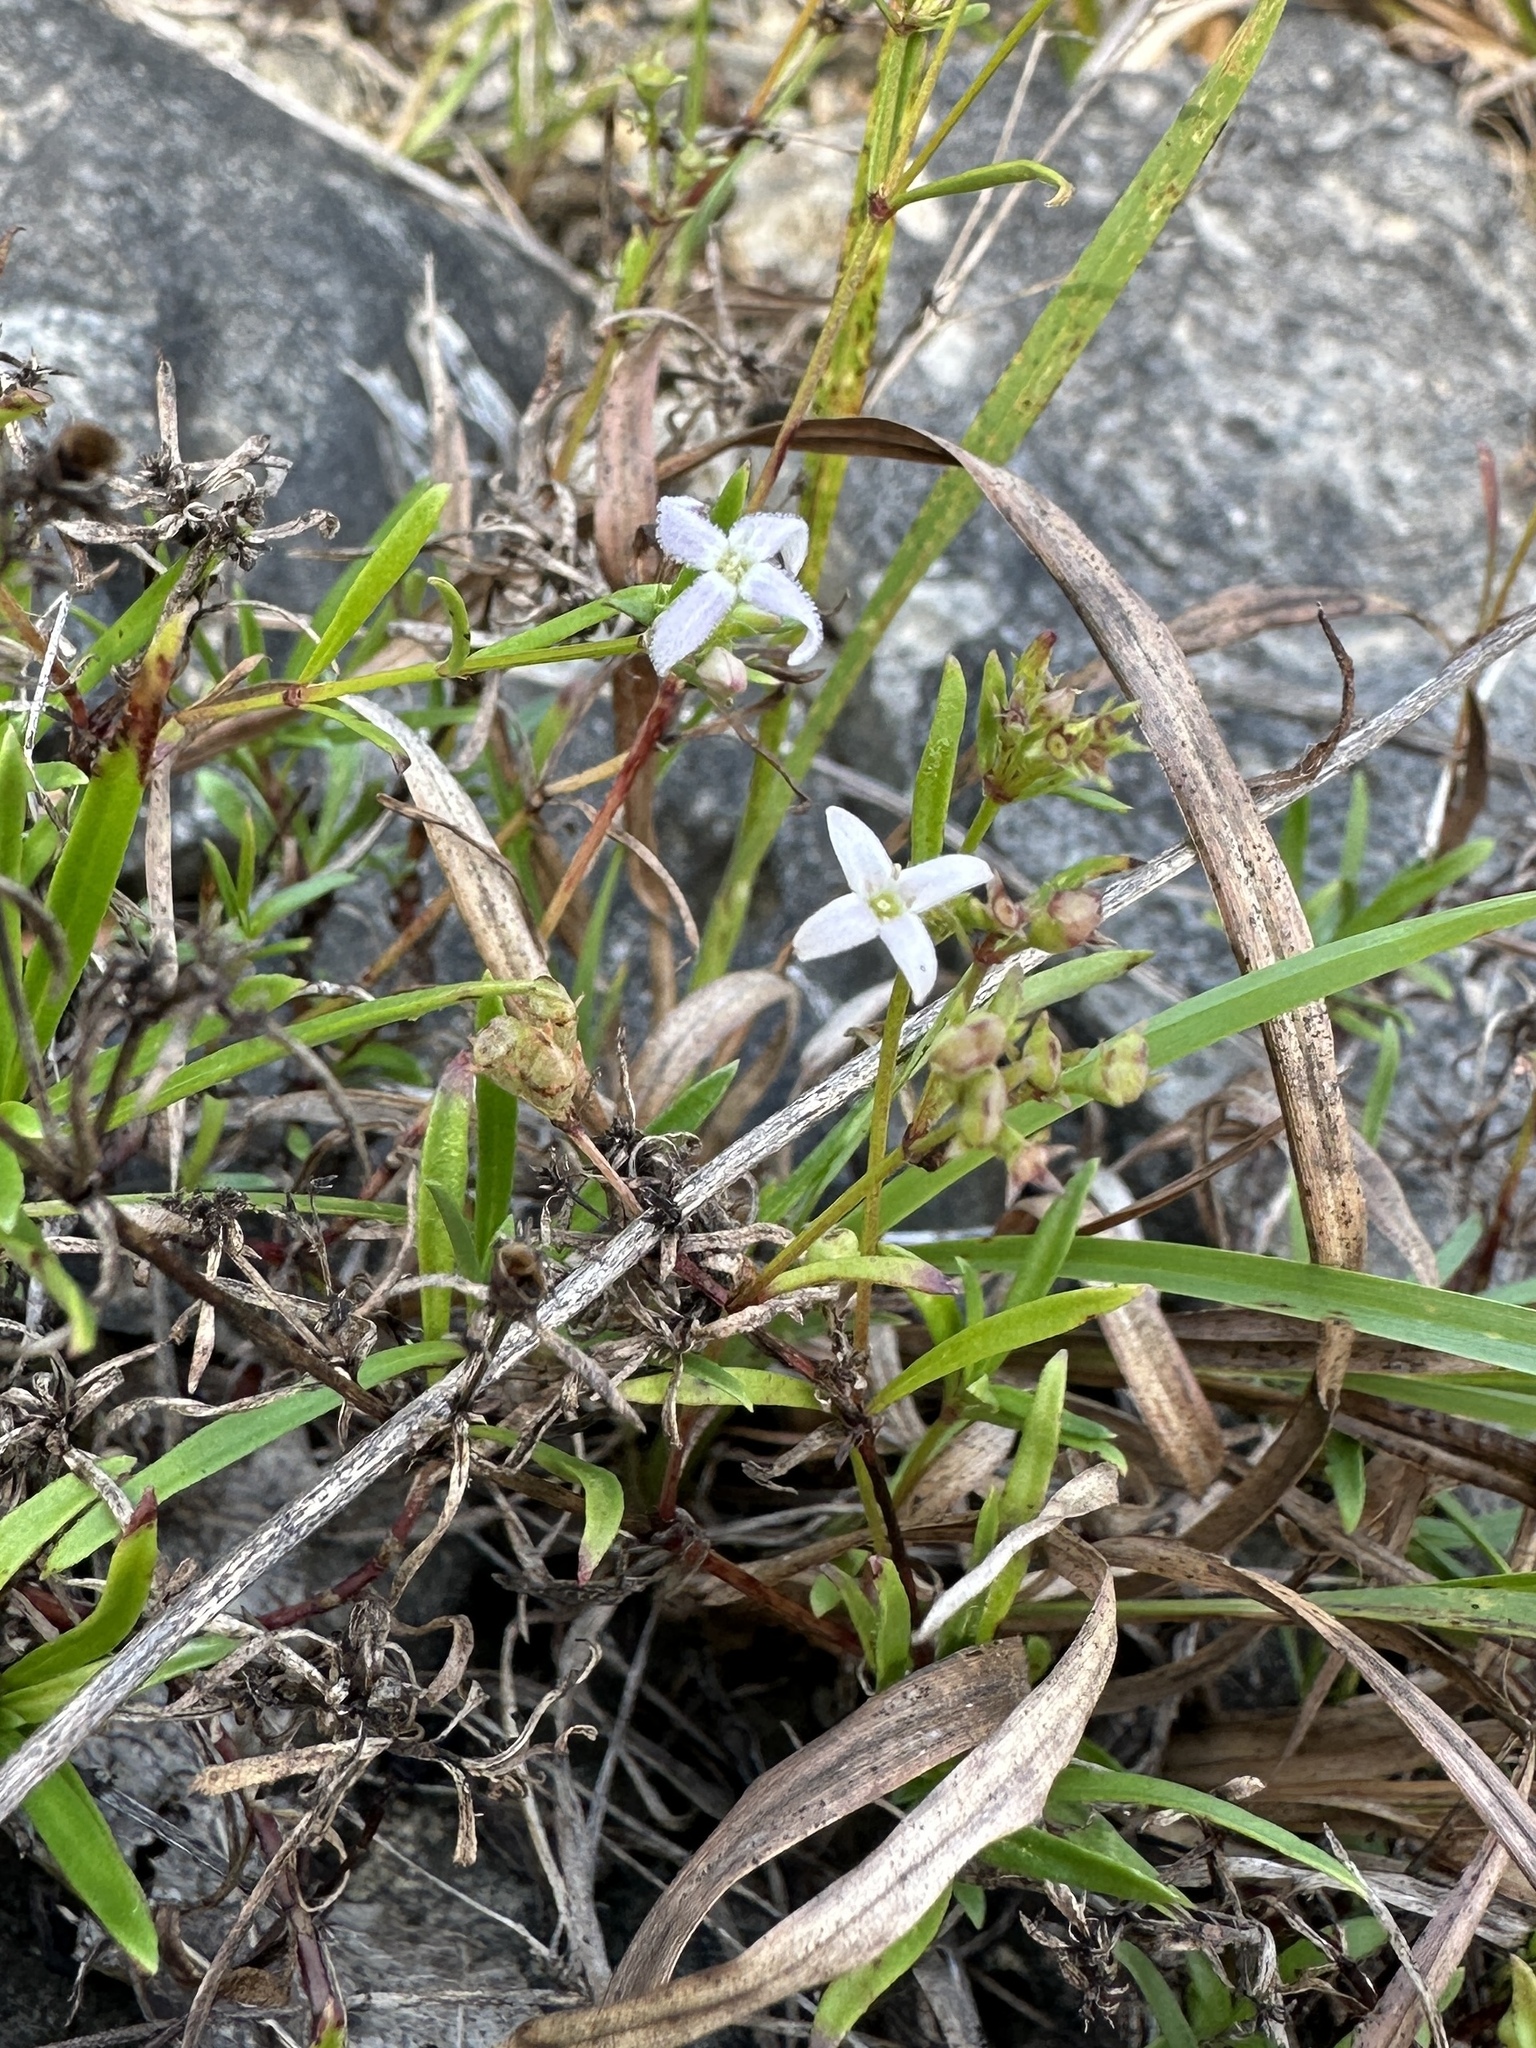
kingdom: Plantae
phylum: Tracheophyta
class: Magnoliopsida
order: Gentianales
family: Rubiaceae
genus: Stenaria
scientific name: Stenaria nigricans
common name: Diamondflowers
